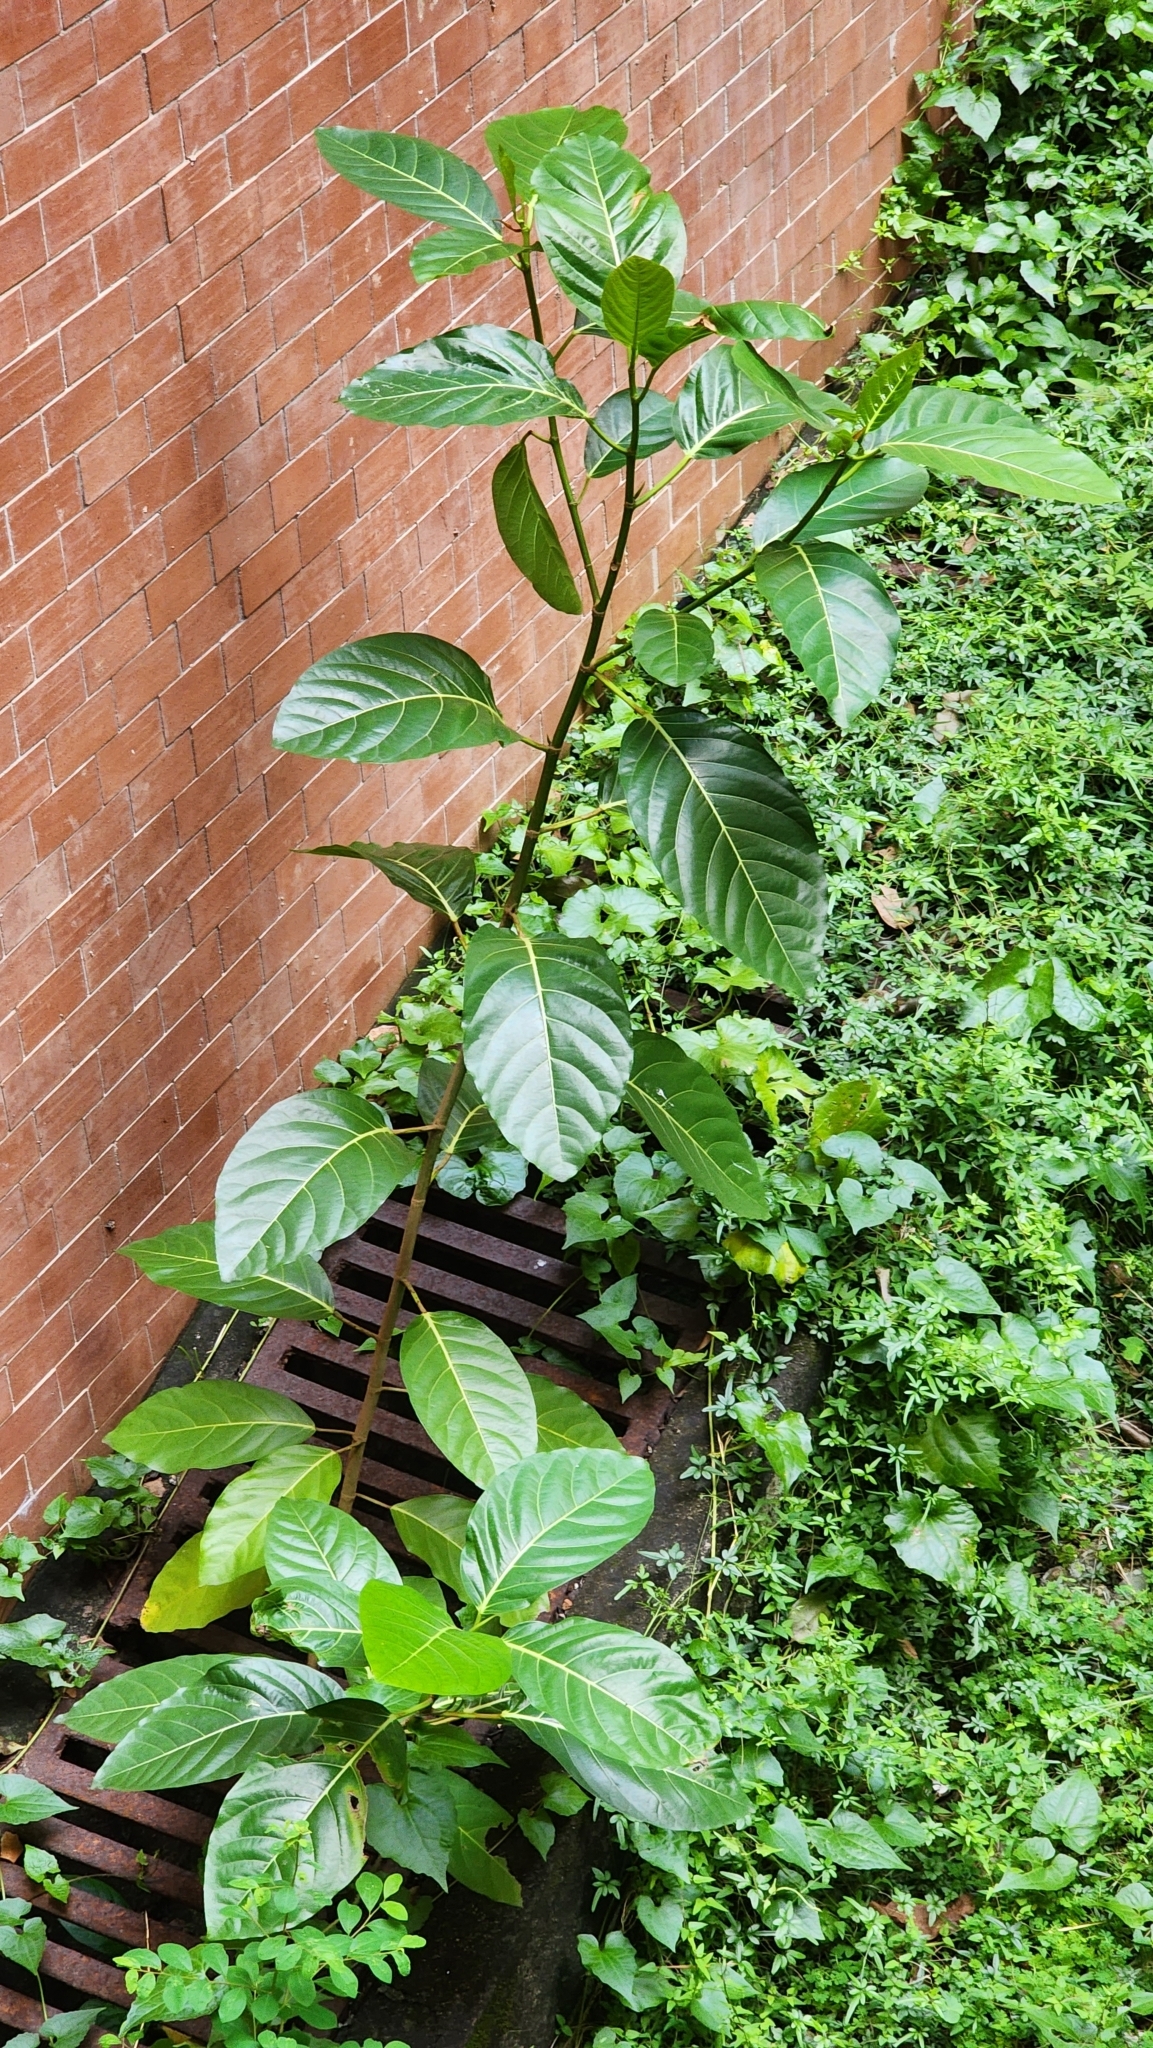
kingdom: Plantae
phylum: Tracheophyta
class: Magnoliopsida
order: Rosales
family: Moraceae
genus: Ficus
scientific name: Ficus septica
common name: Septic fig
